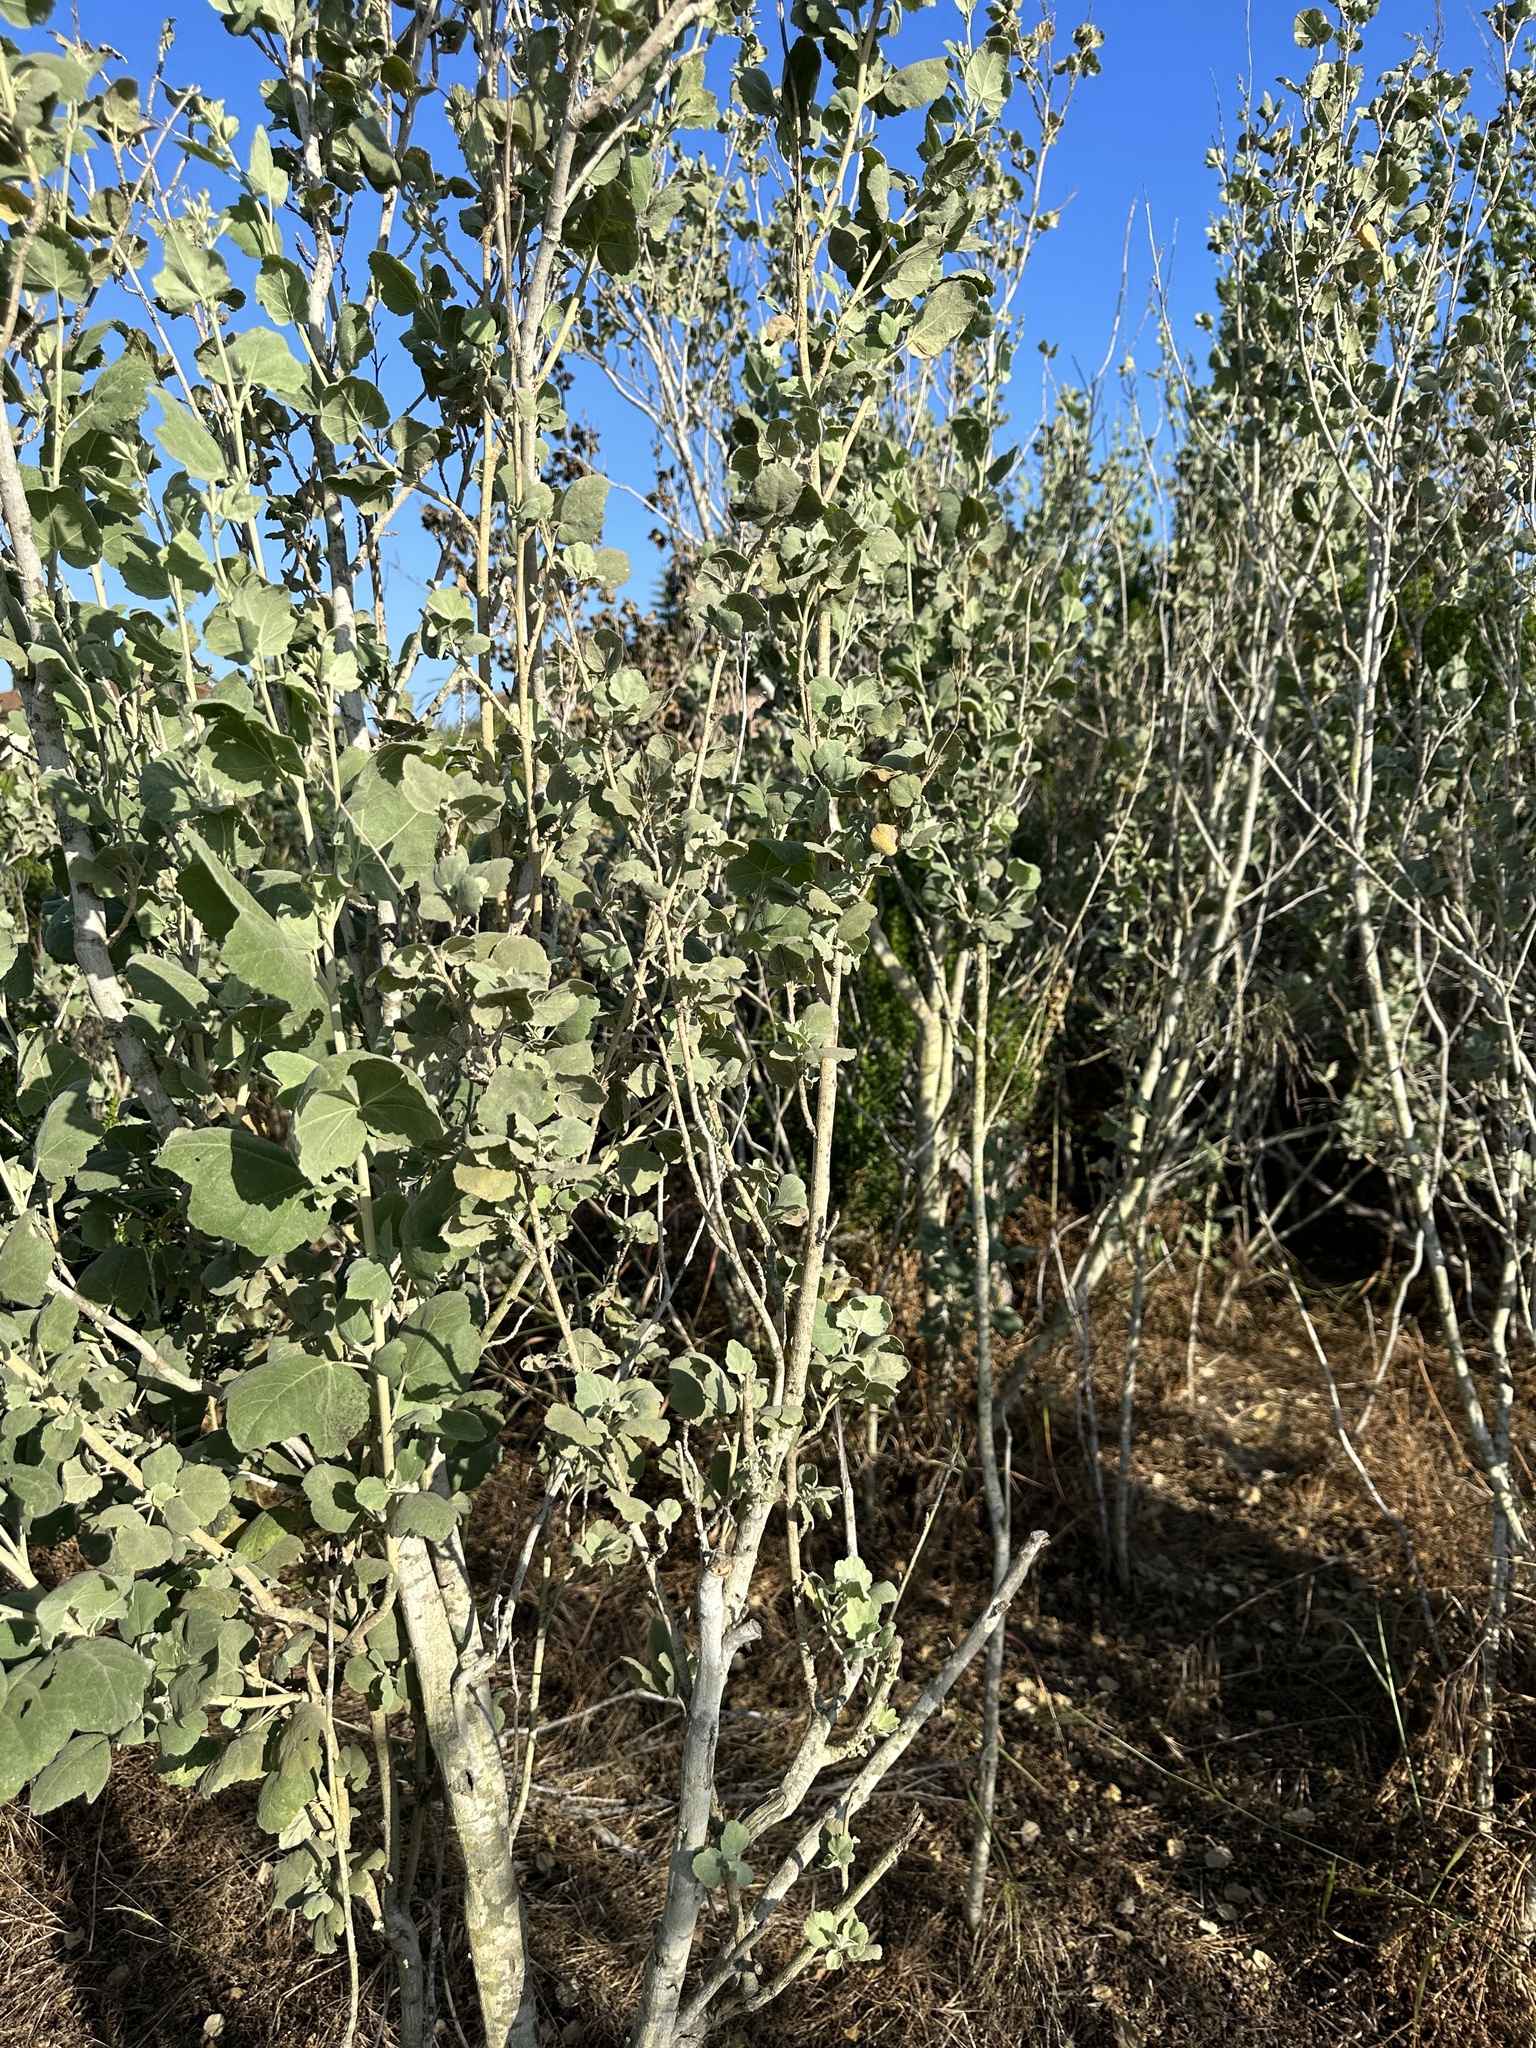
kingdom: Plantae
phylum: Tracheophyta
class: Magnoliopsida
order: Malvales
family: Malvaceae
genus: Malacothamnus
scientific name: Malacothamnus fasciculatus
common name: Sant cruz island bush-mallow
